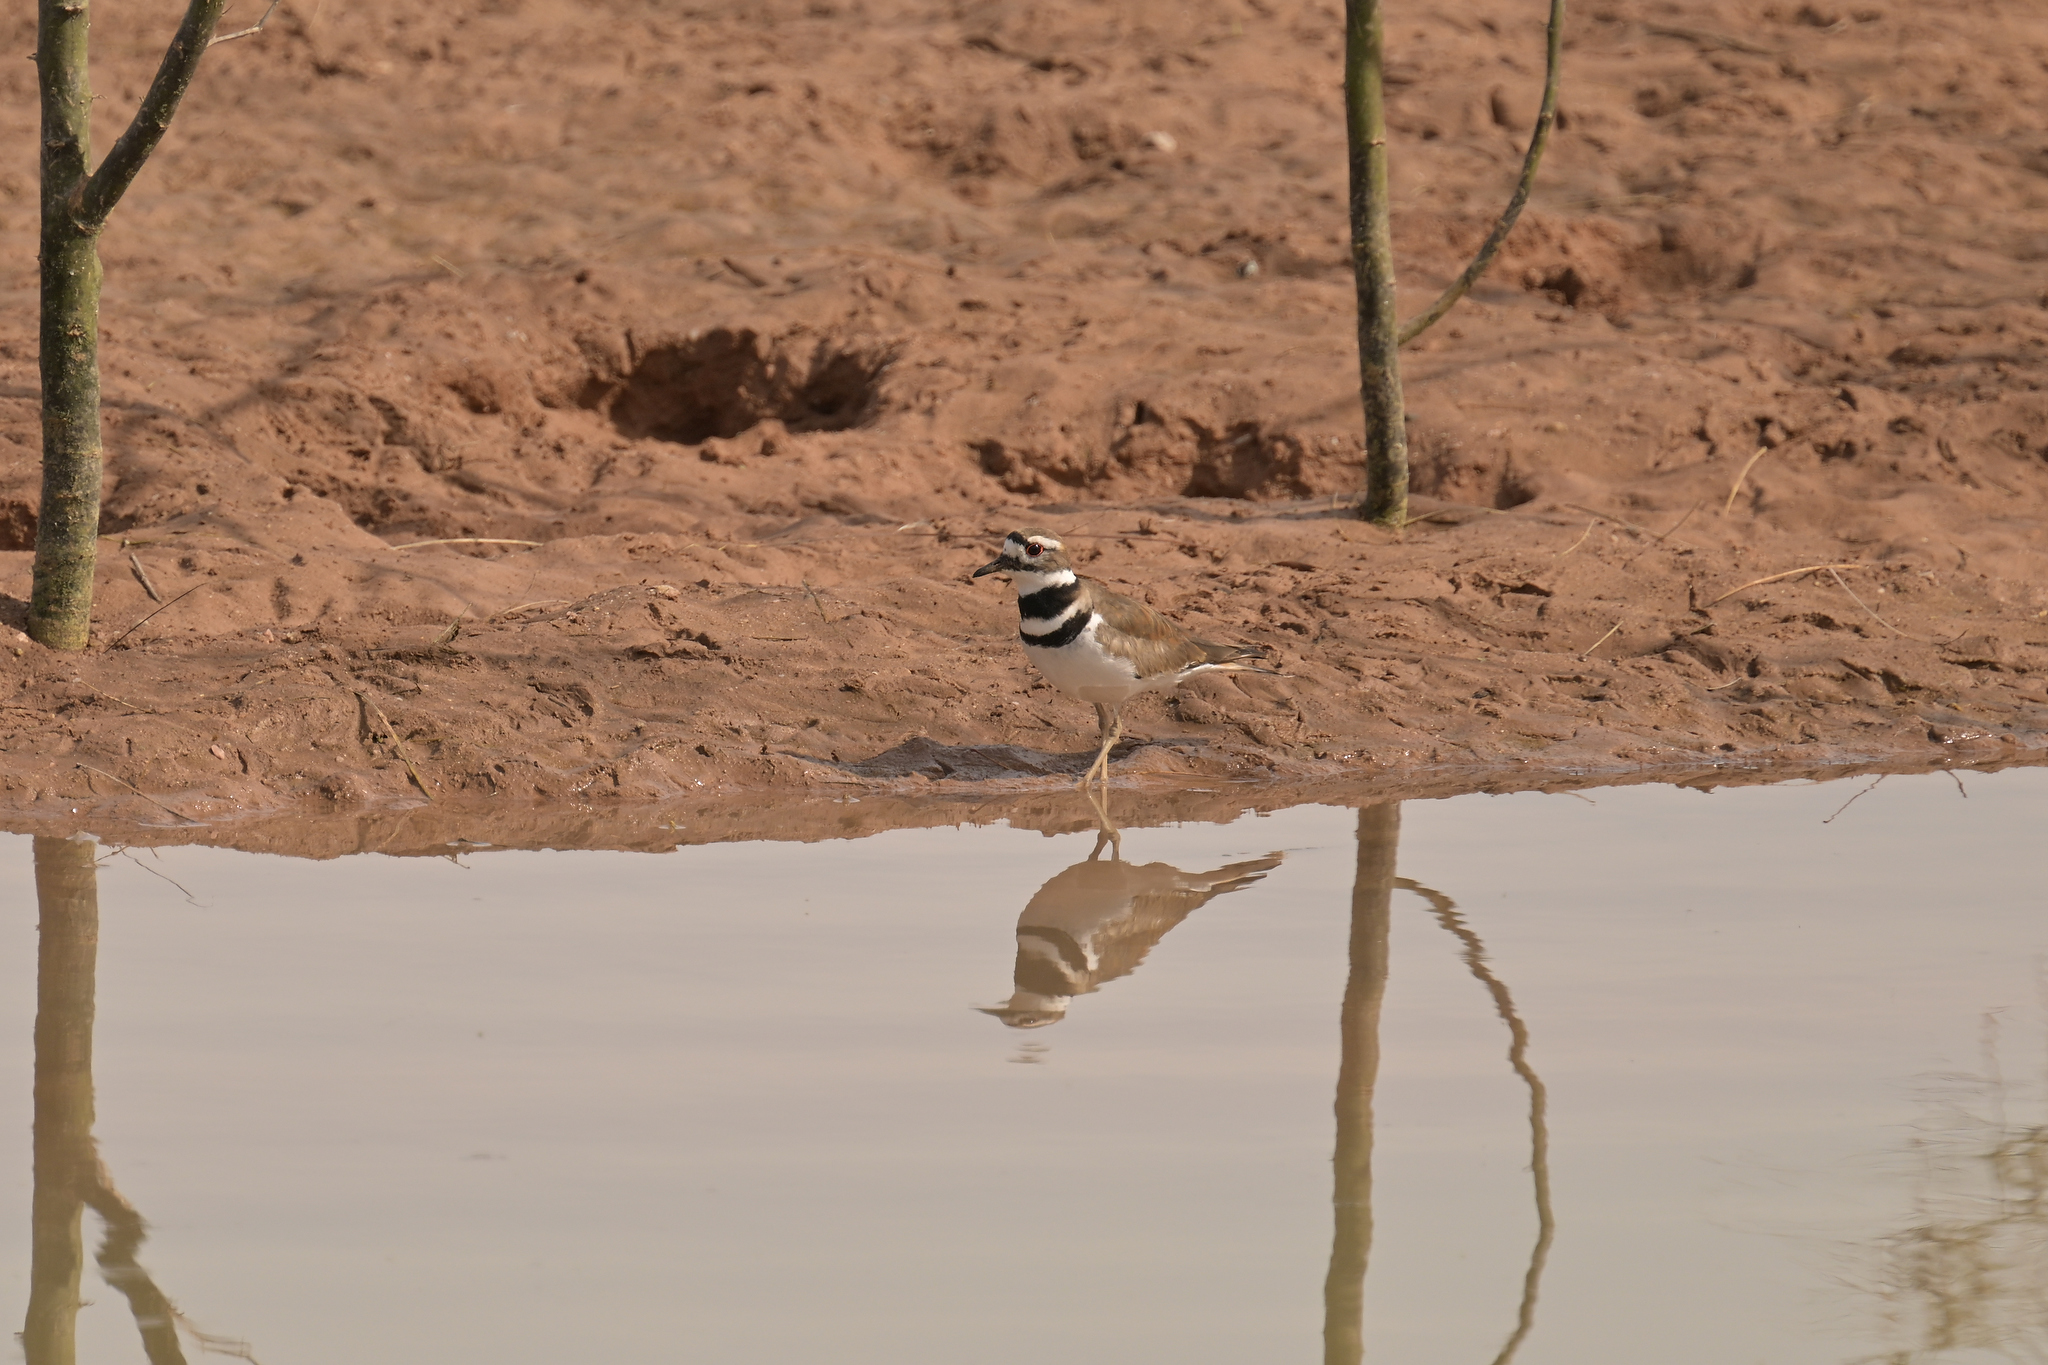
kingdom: Animalia
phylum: Chordata
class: Aves
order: Charadriiformes
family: Charadriidae
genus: Charadrius
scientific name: Charadrius vociferus
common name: Killdeer
